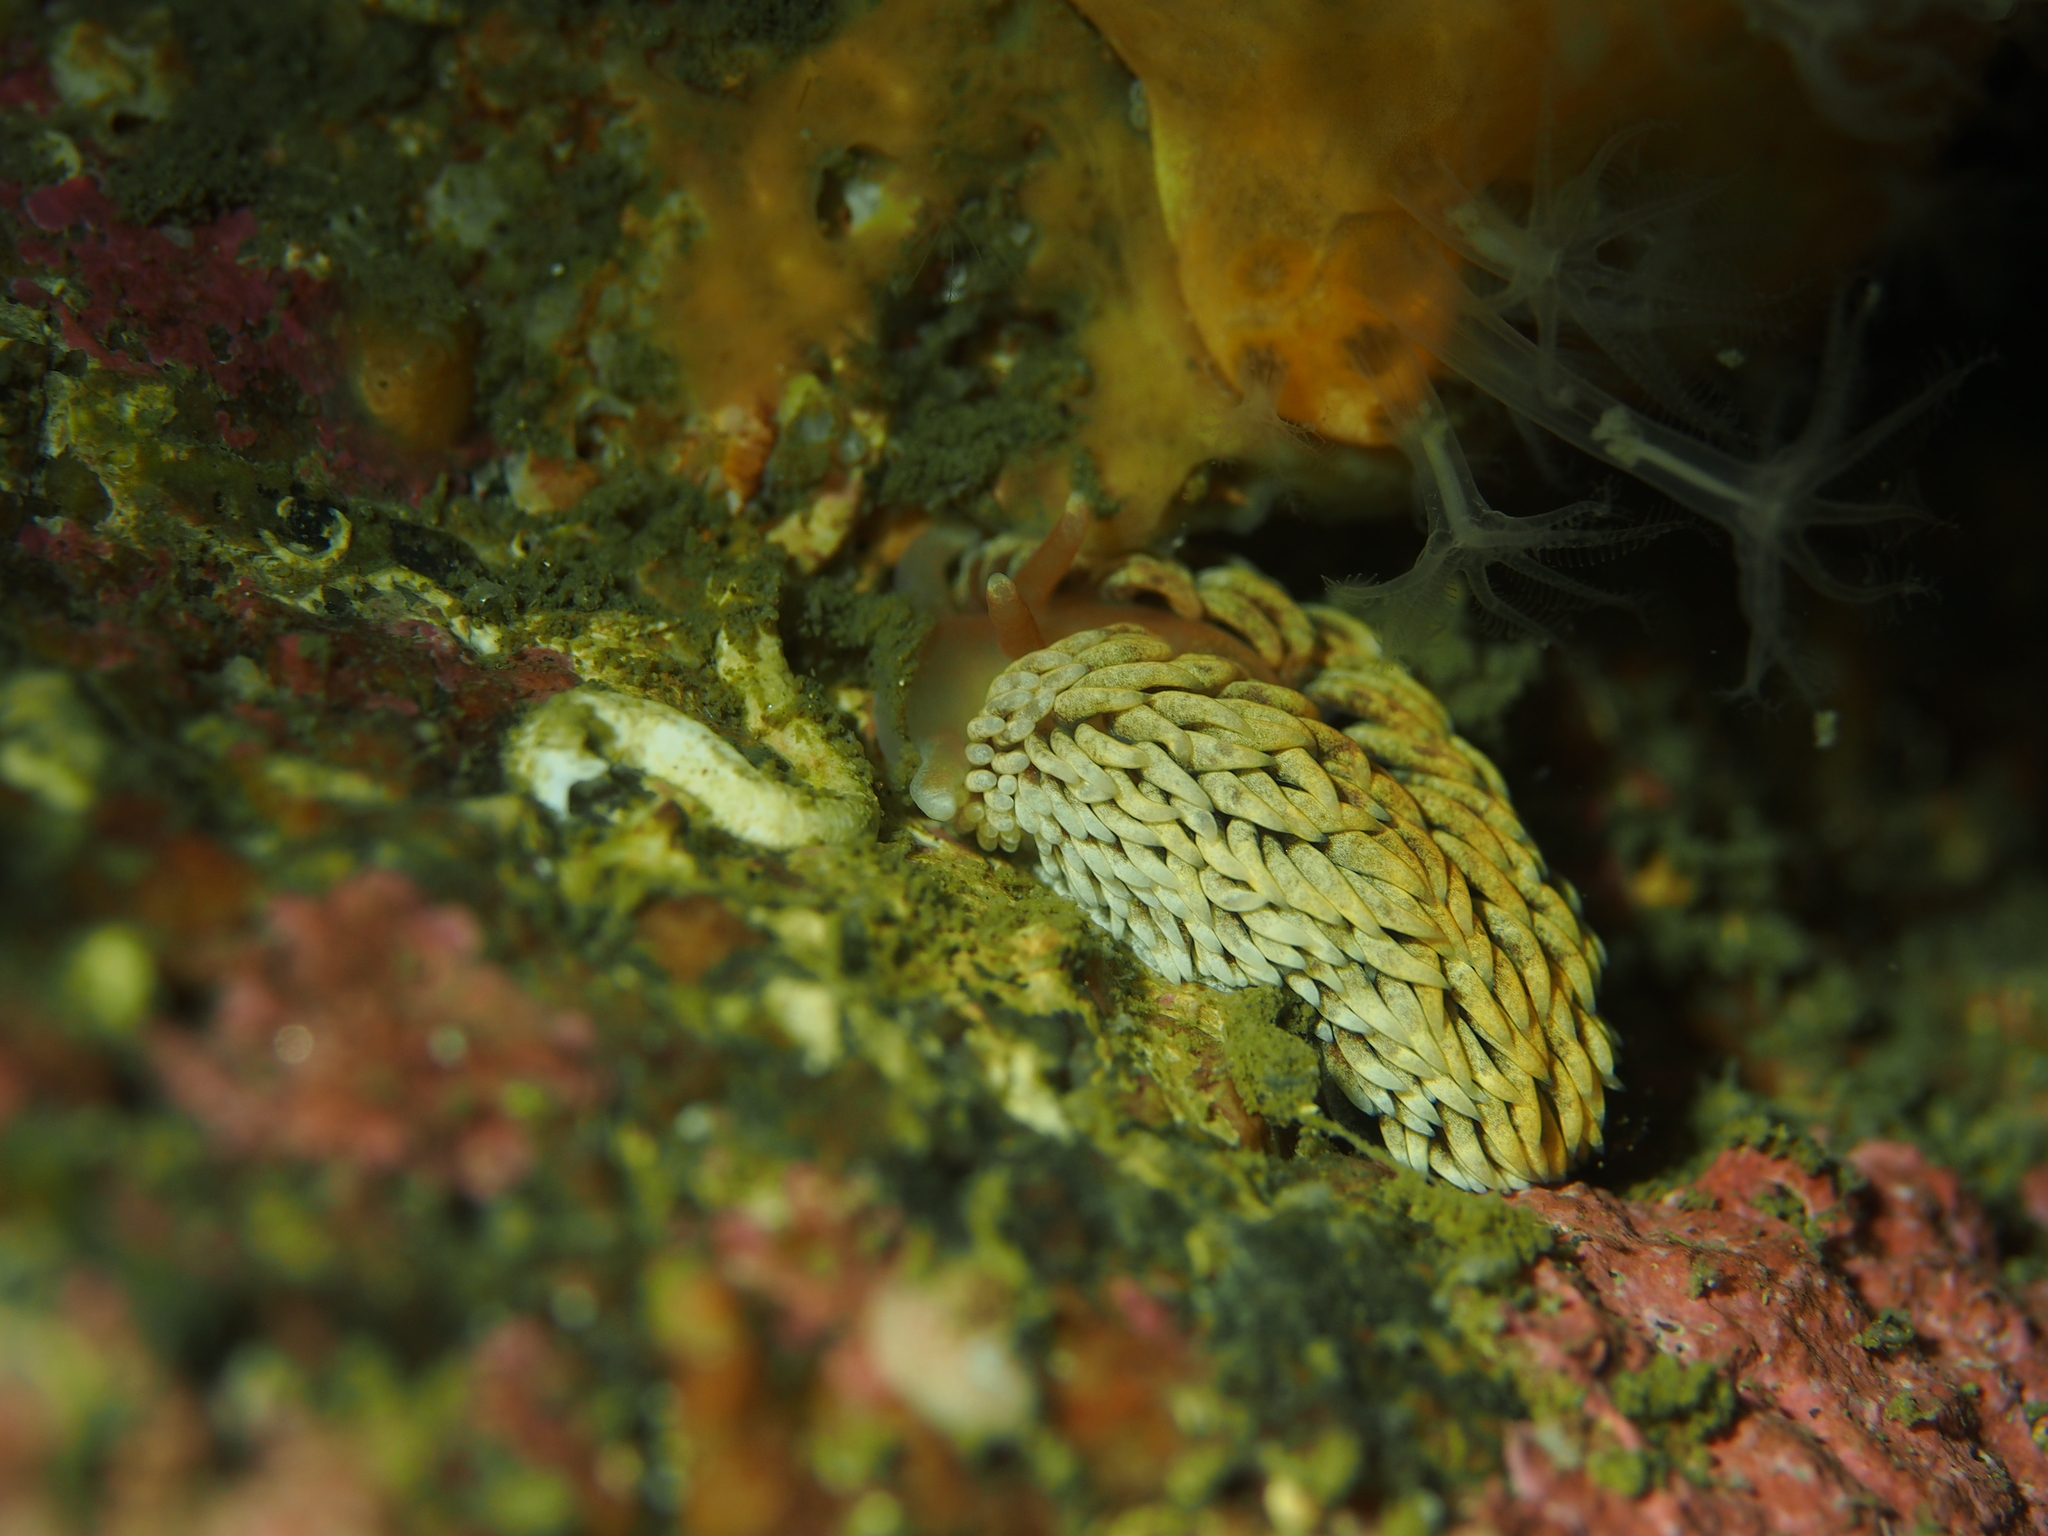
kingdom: Animalia
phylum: Mollusca
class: Gastropoda
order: Nudibranchia
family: Aeolidiidae
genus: Aeolidiella
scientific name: Aeolidiella glauca
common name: Orange-brown aeolid
